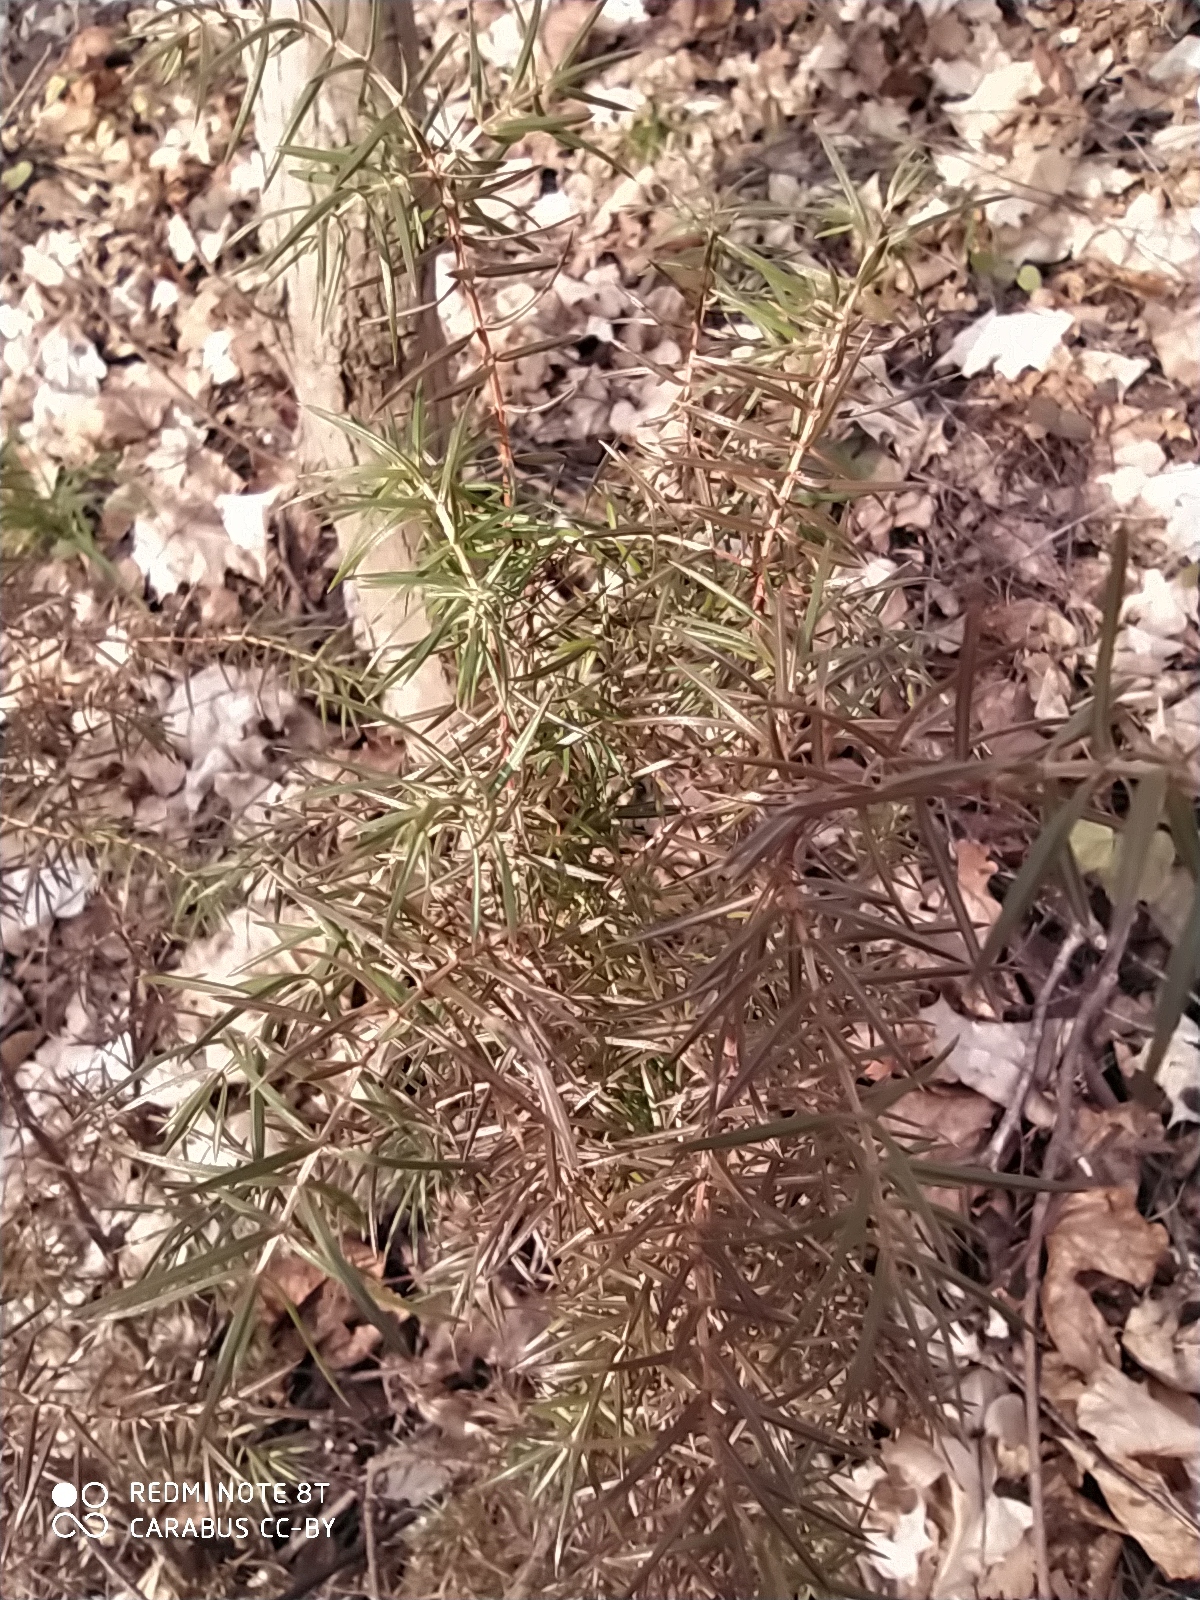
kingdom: Plantae
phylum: Tracheophyta
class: Pinopsida
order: Pinales
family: Cupressaceae
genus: Juniperus
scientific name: Juniperus communis
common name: Common juniper
